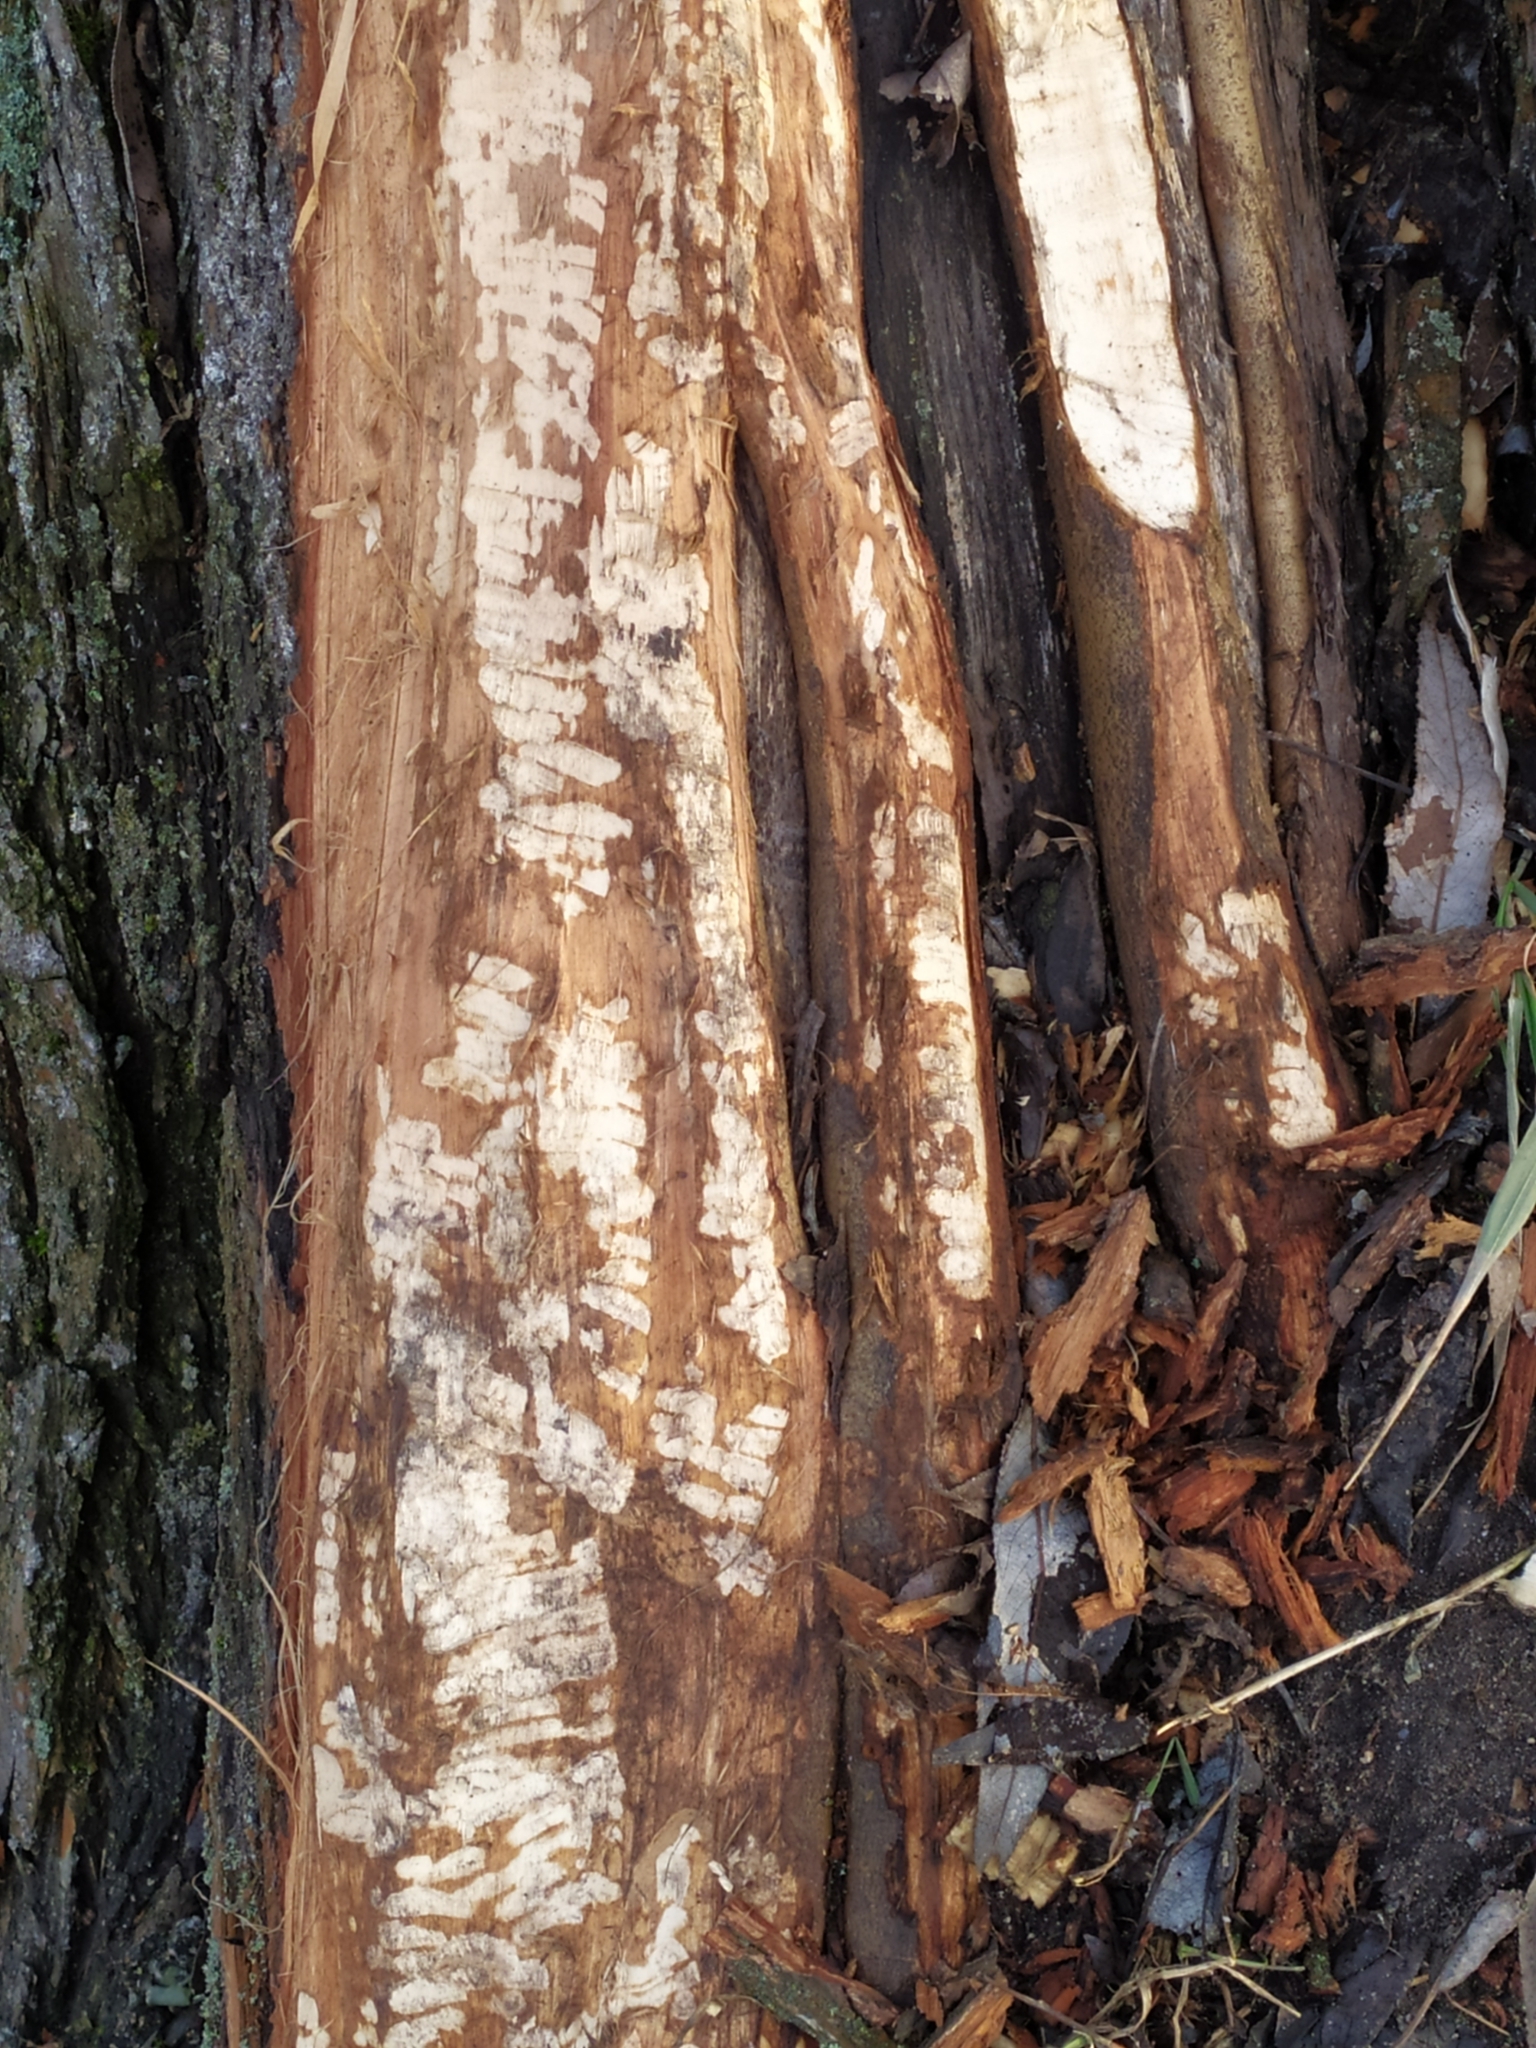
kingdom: Animalia
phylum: Chordata
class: Mammalia
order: Rodentia
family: Castoridae
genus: Castor
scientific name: Castor fiber
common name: Eurasian beaver
